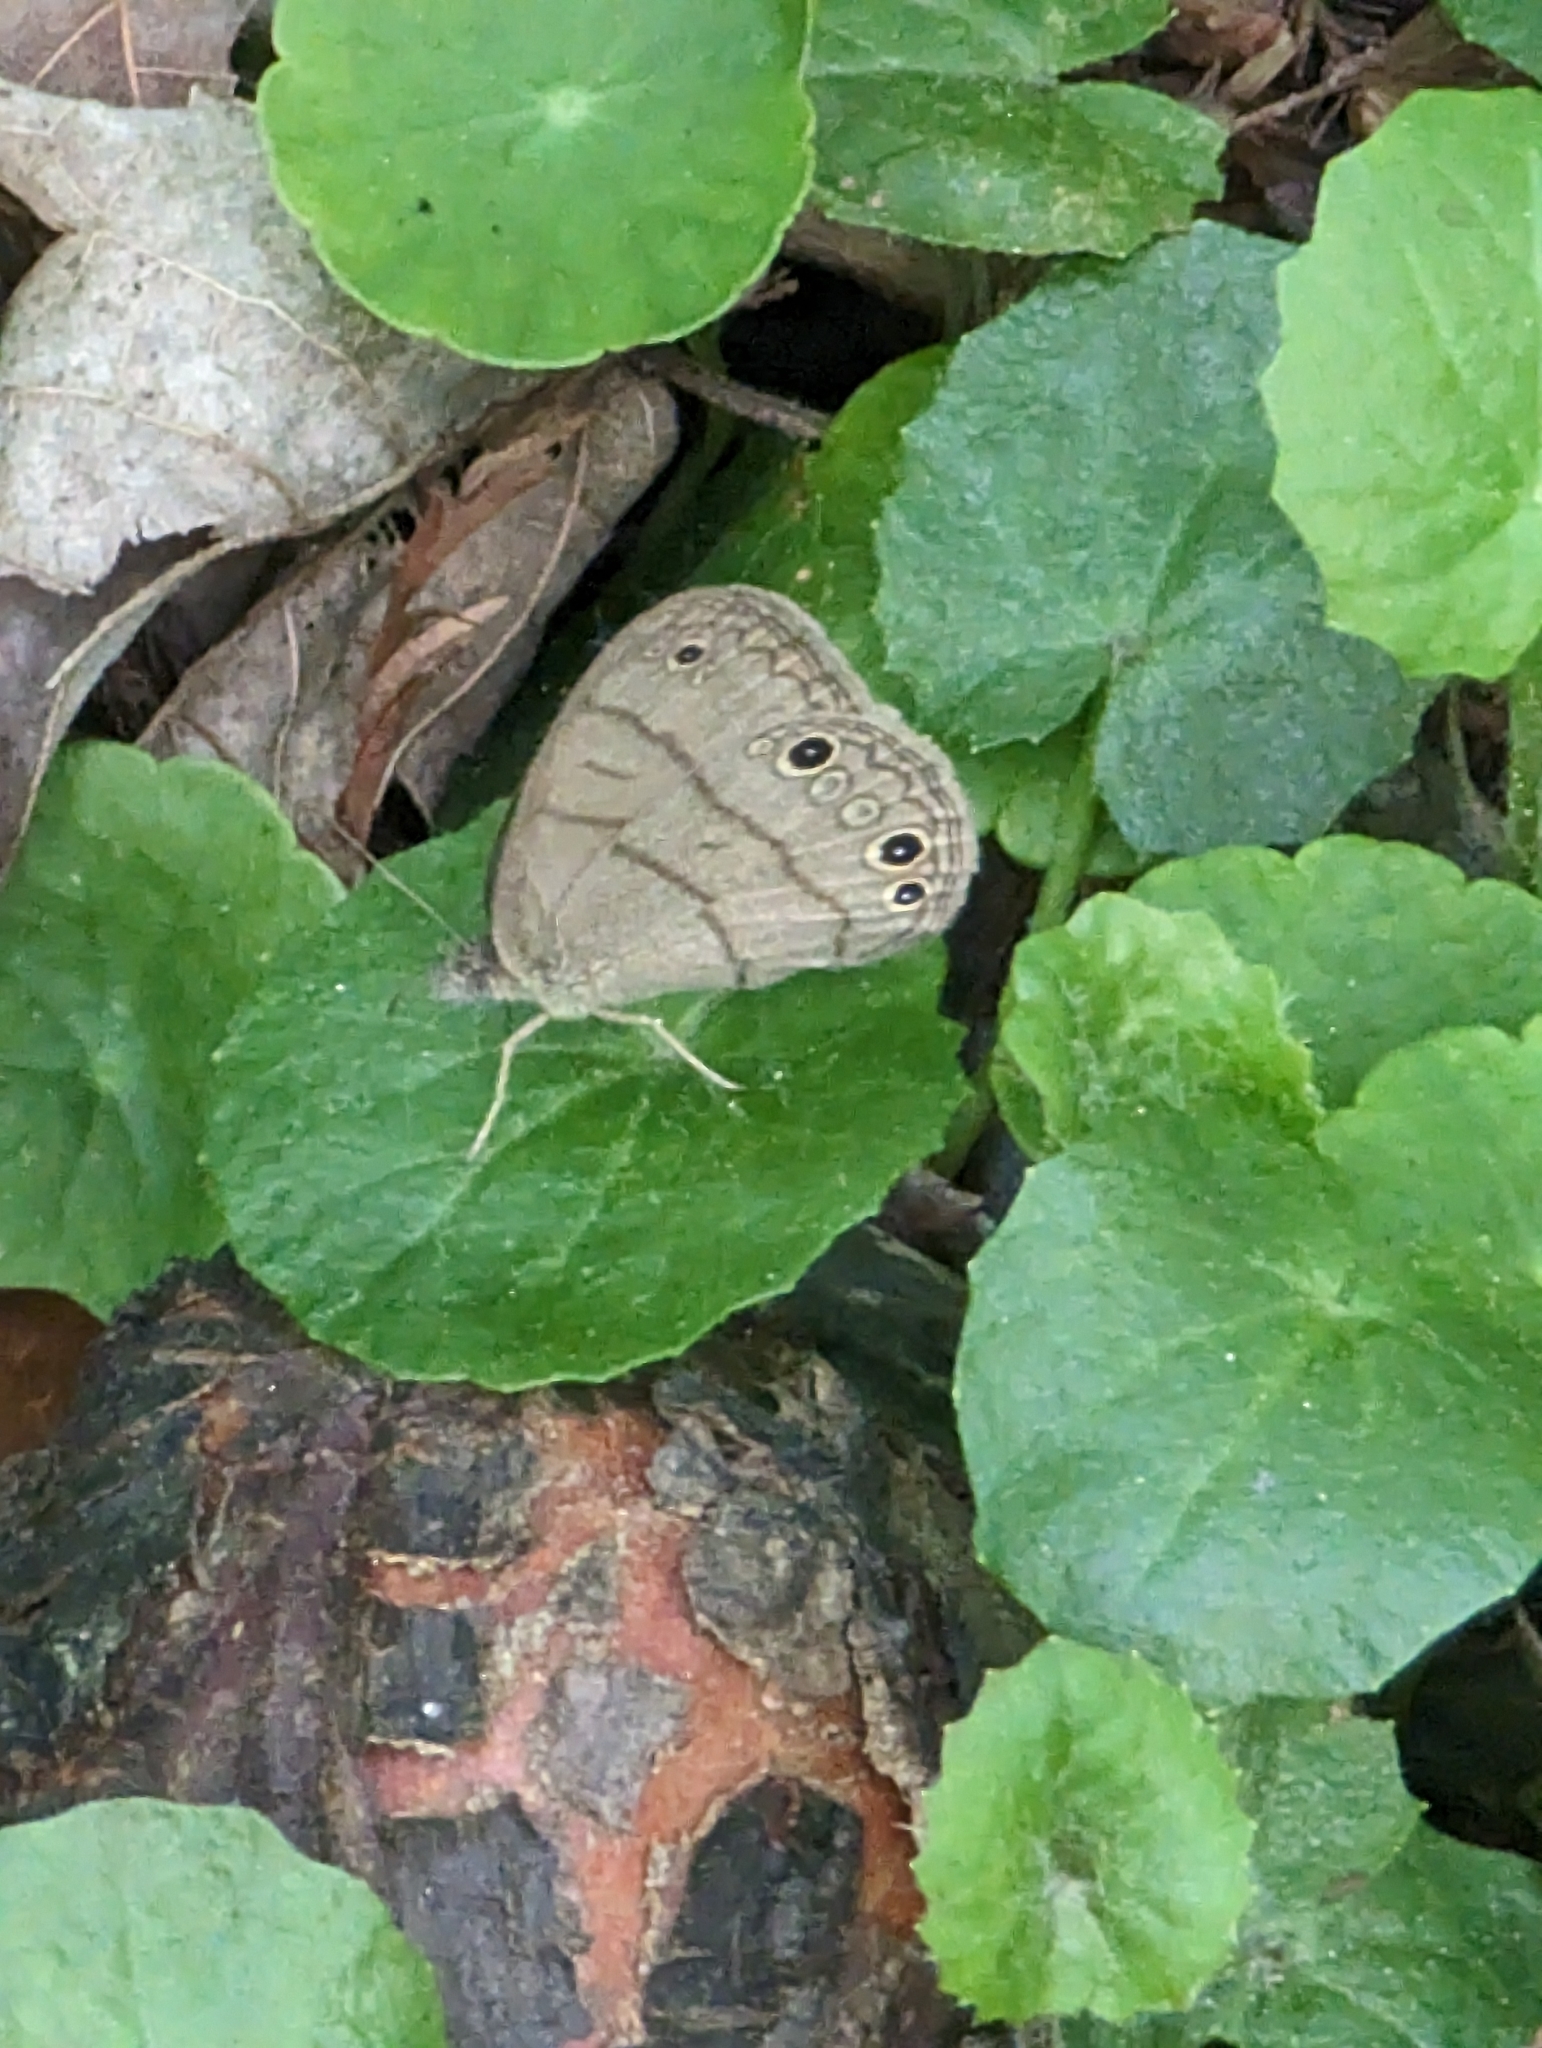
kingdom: Animalia
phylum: Arthropoda
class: Insecta
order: Lepidoptera
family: Nymphalidae
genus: Hermeuptychia
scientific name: Hermeuptychia intricata
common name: Intricate satyr
